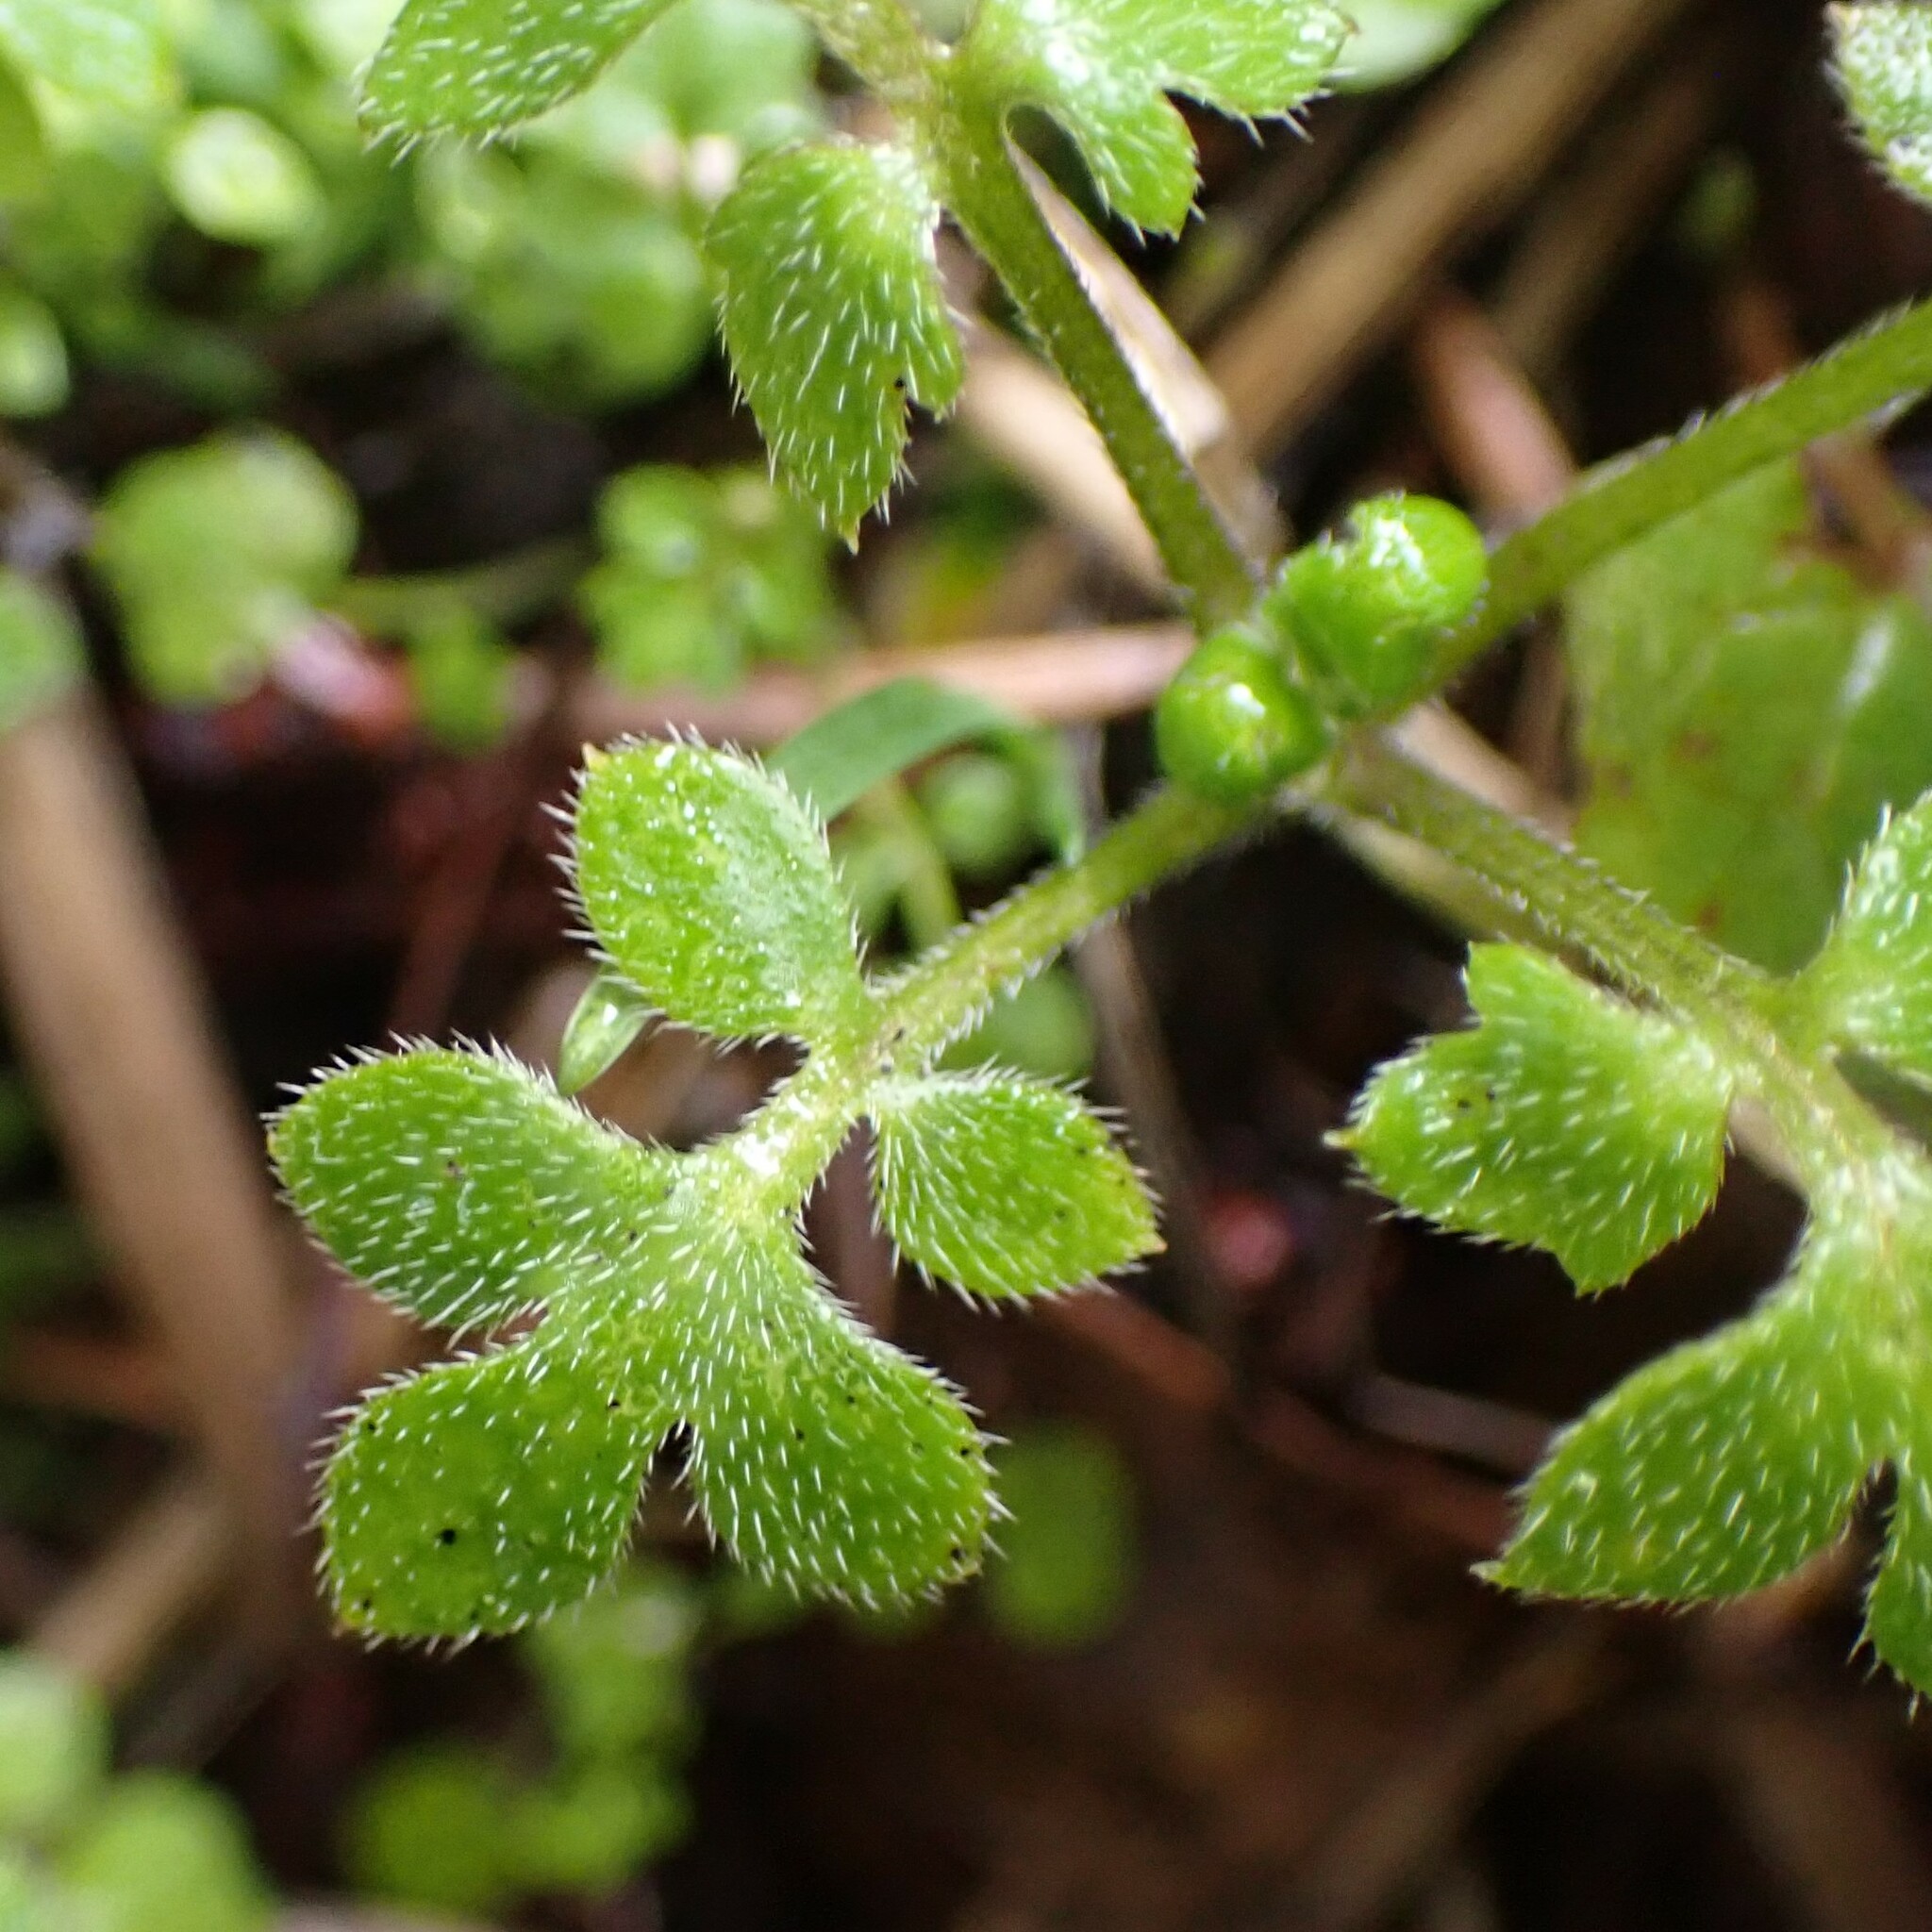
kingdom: Plantae
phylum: Tracheophyta
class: Magnoliopsida
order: Boraginales
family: Hydrophyllaceae
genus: Nemophila
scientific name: Nemophila parviflora
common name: Small-flowered baby-blue-eyes
